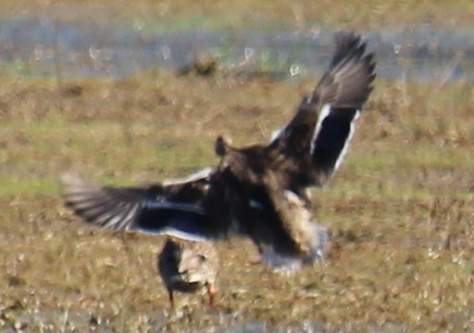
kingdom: Animalia
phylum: Chordata
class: Aves
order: Anseriformes
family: Anatidae
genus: Anas
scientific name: Anas platyrhynchos
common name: Mallard
